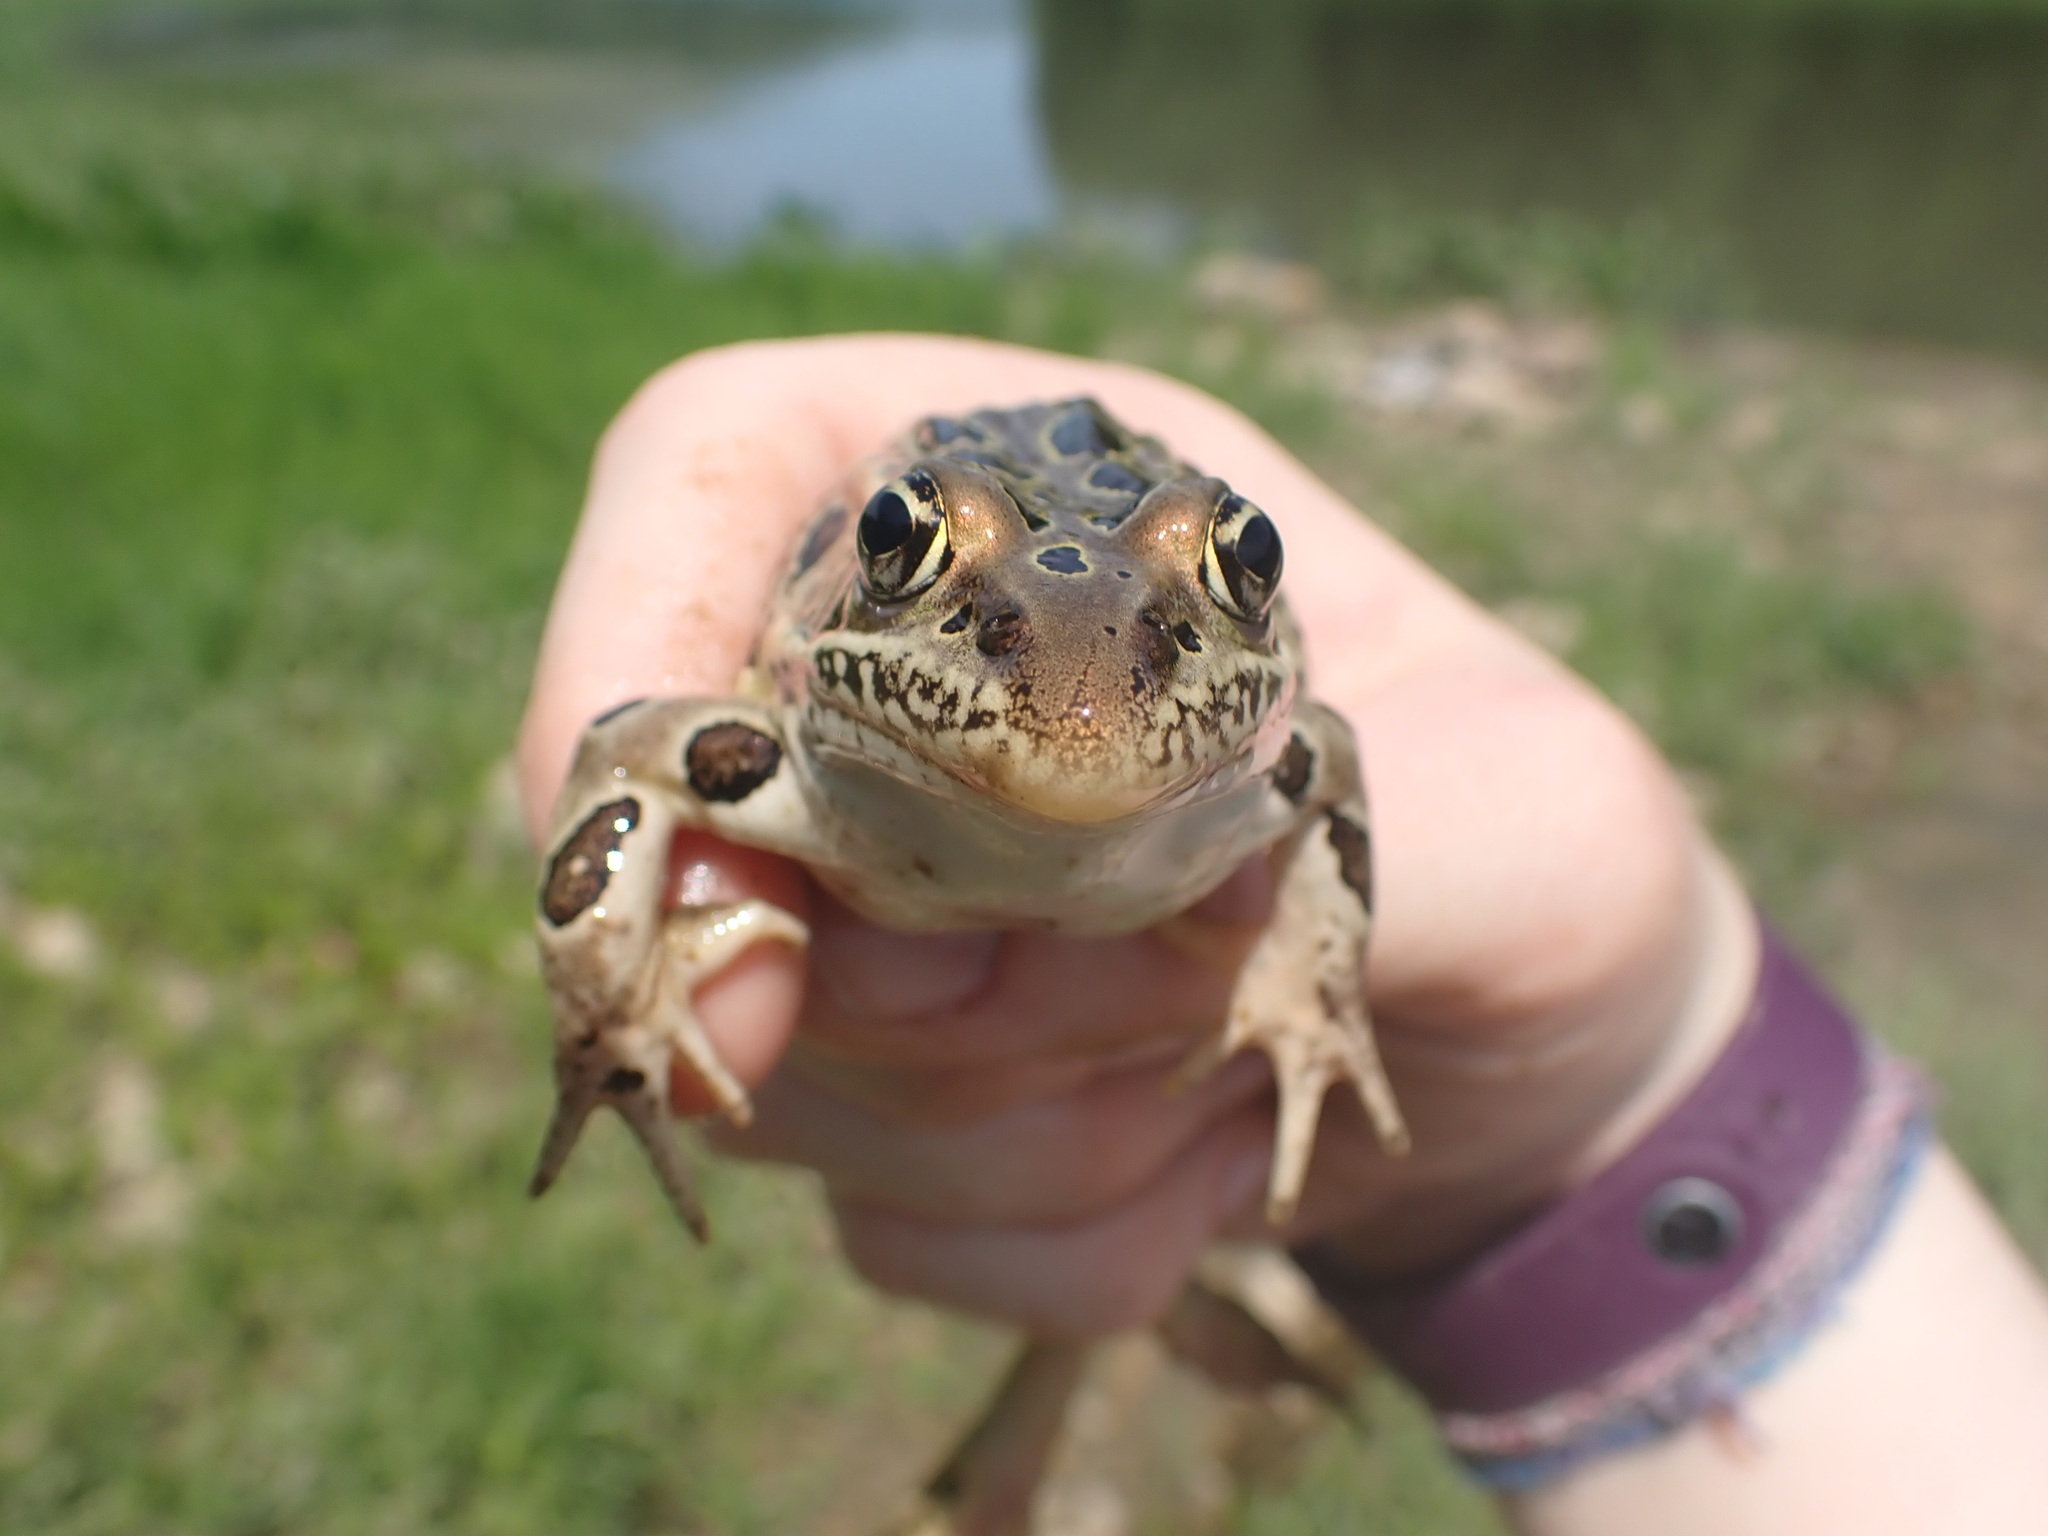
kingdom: Animalia
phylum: Chordata
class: Amphibia
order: Anura
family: Ranidae
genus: Lithobates
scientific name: Lithobates pipiens
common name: Northern leopard frog
